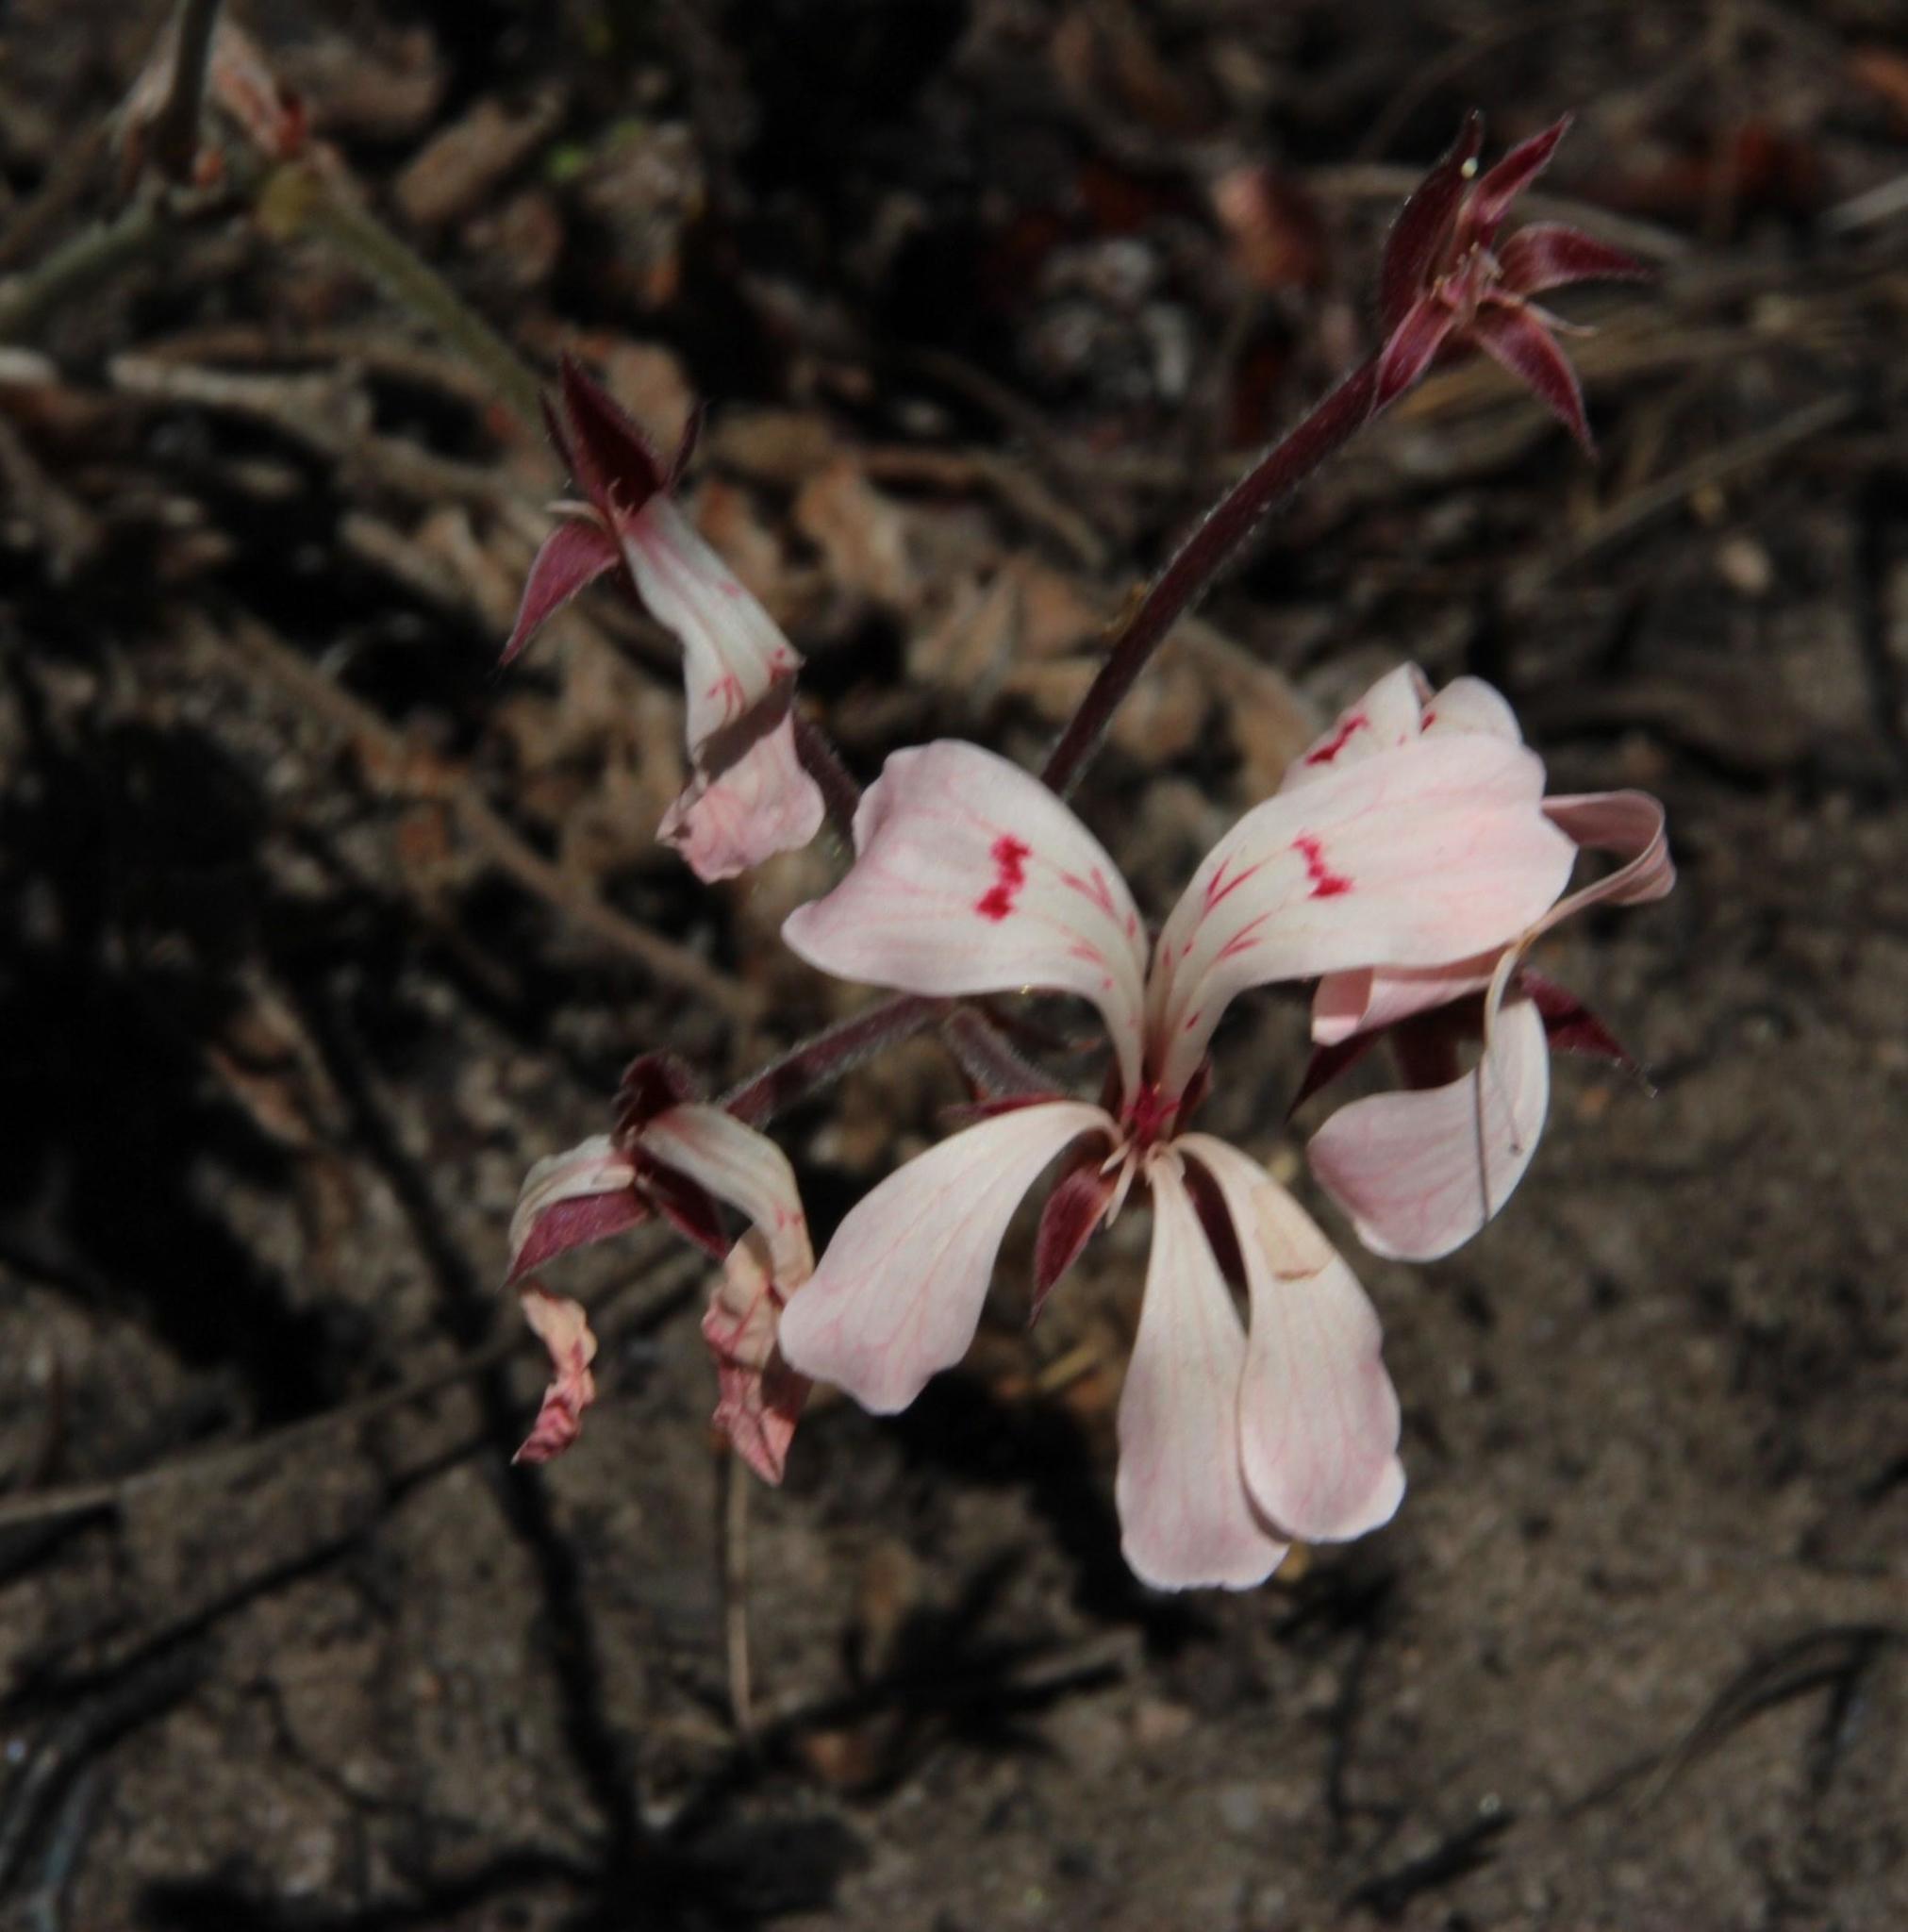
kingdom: Plantae
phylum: Tracheophyta
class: Magnoliopsida
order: Geraniales
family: Geraniaceae
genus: Pelargonium
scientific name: Pelargonium pinnatum
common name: Pinnated pelargonium
